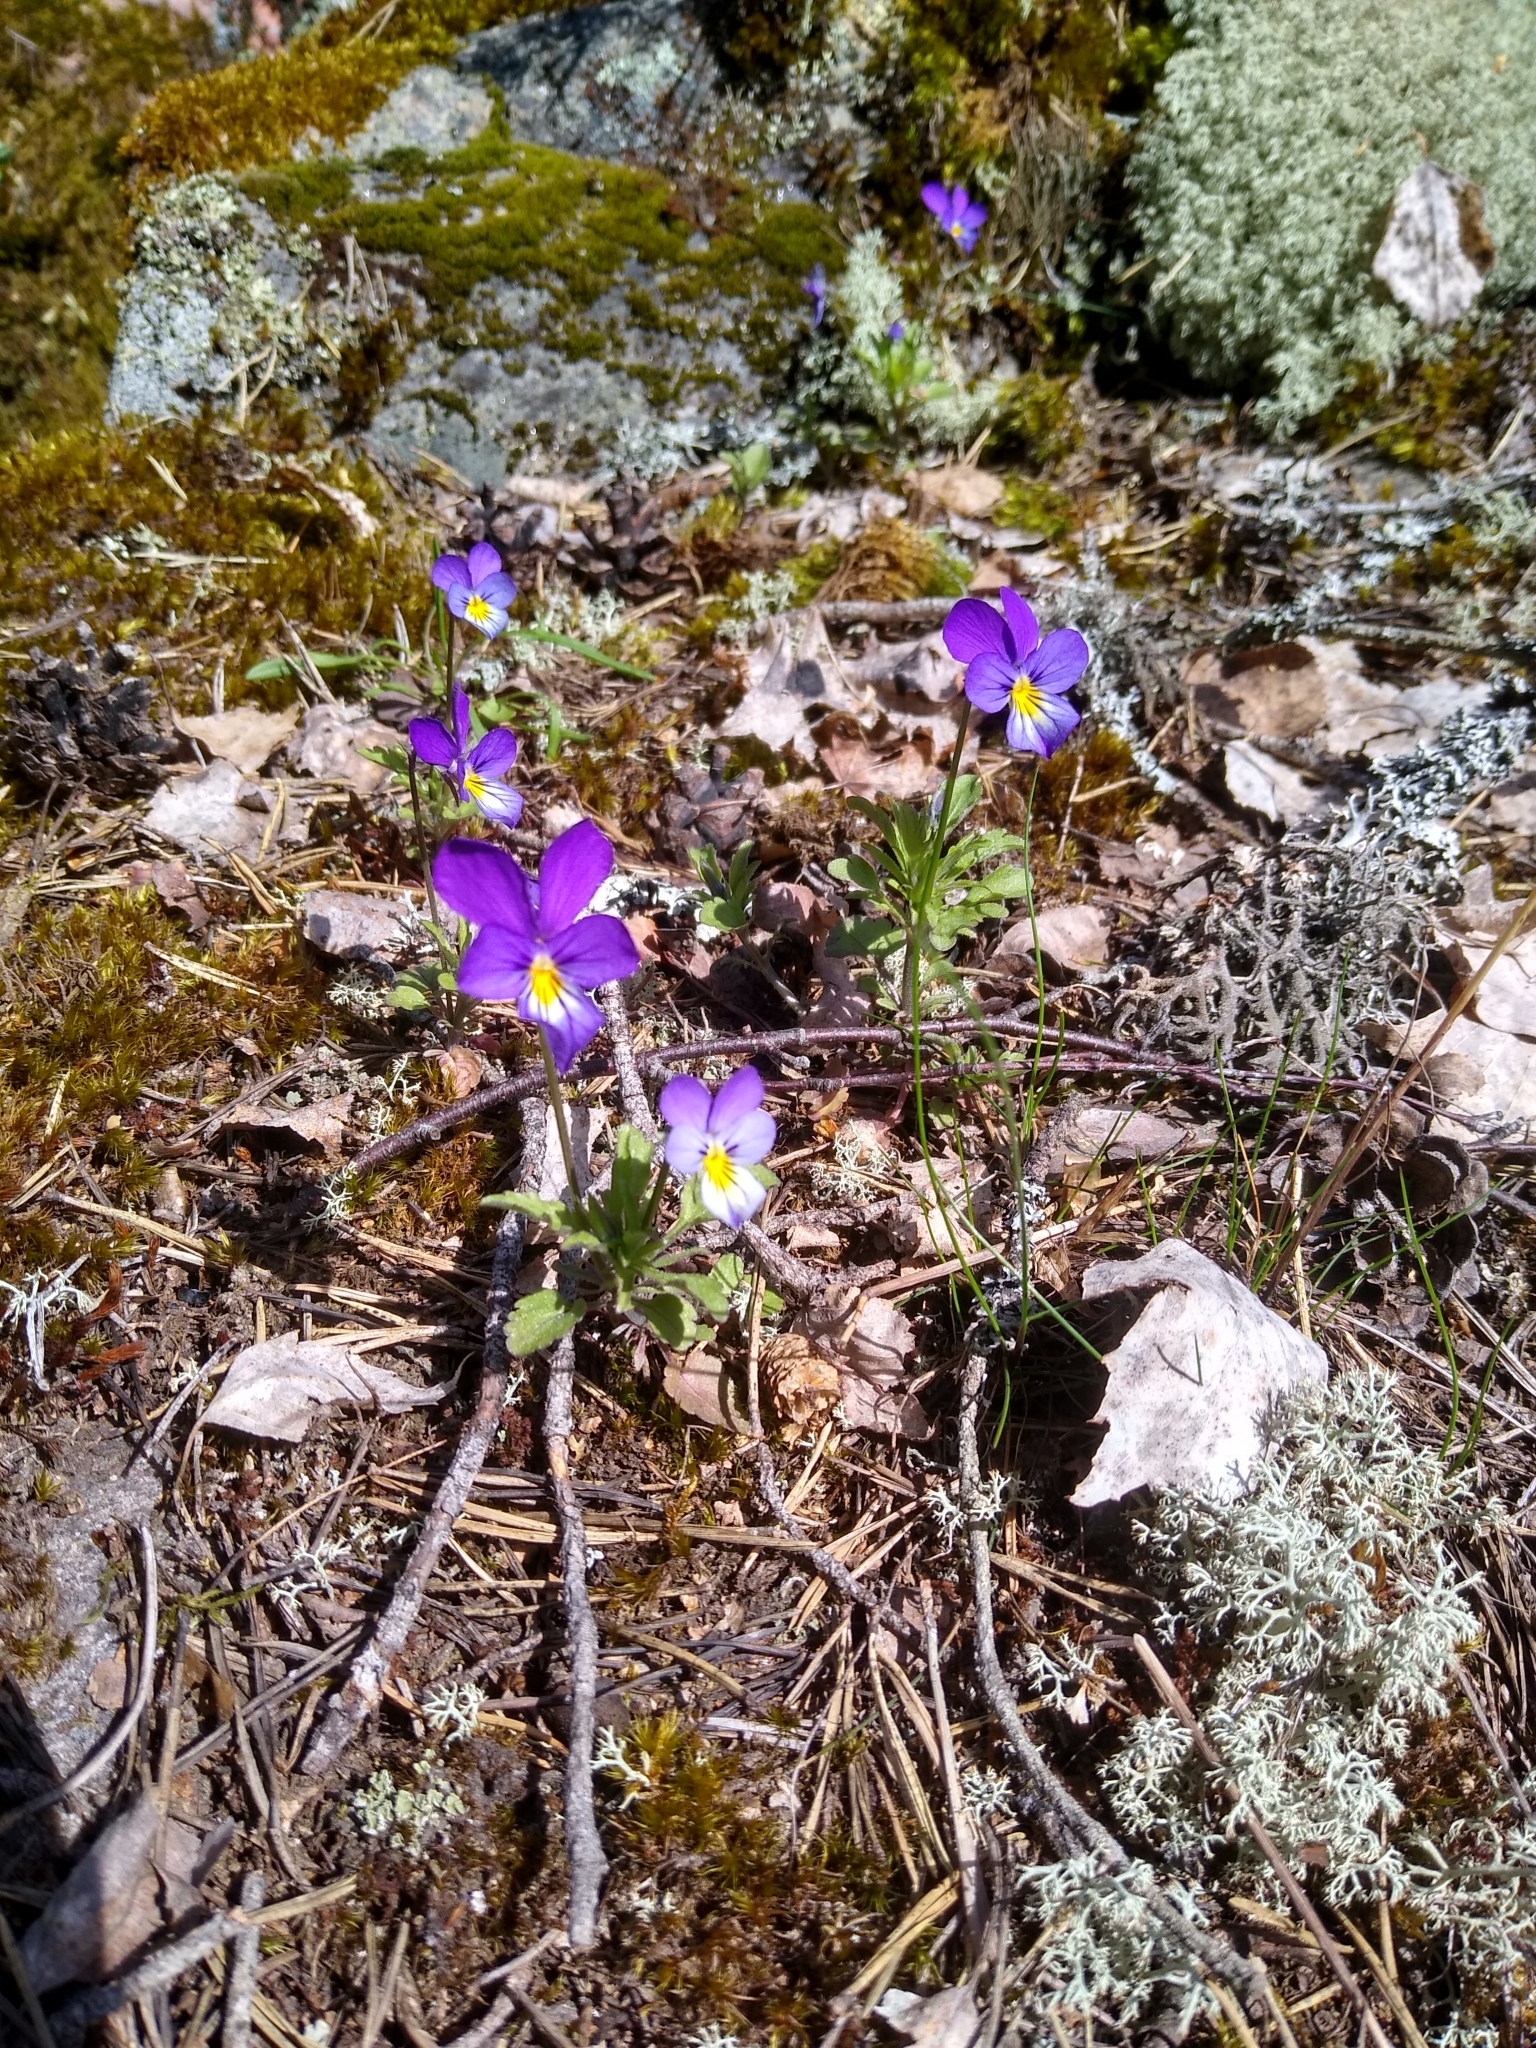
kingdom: Plantae
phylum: Tracheophyta
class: Magnoliopsida
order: Malpighiales
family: Violaceae
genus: Viola
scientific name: Viola tricolor
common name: Pansy
